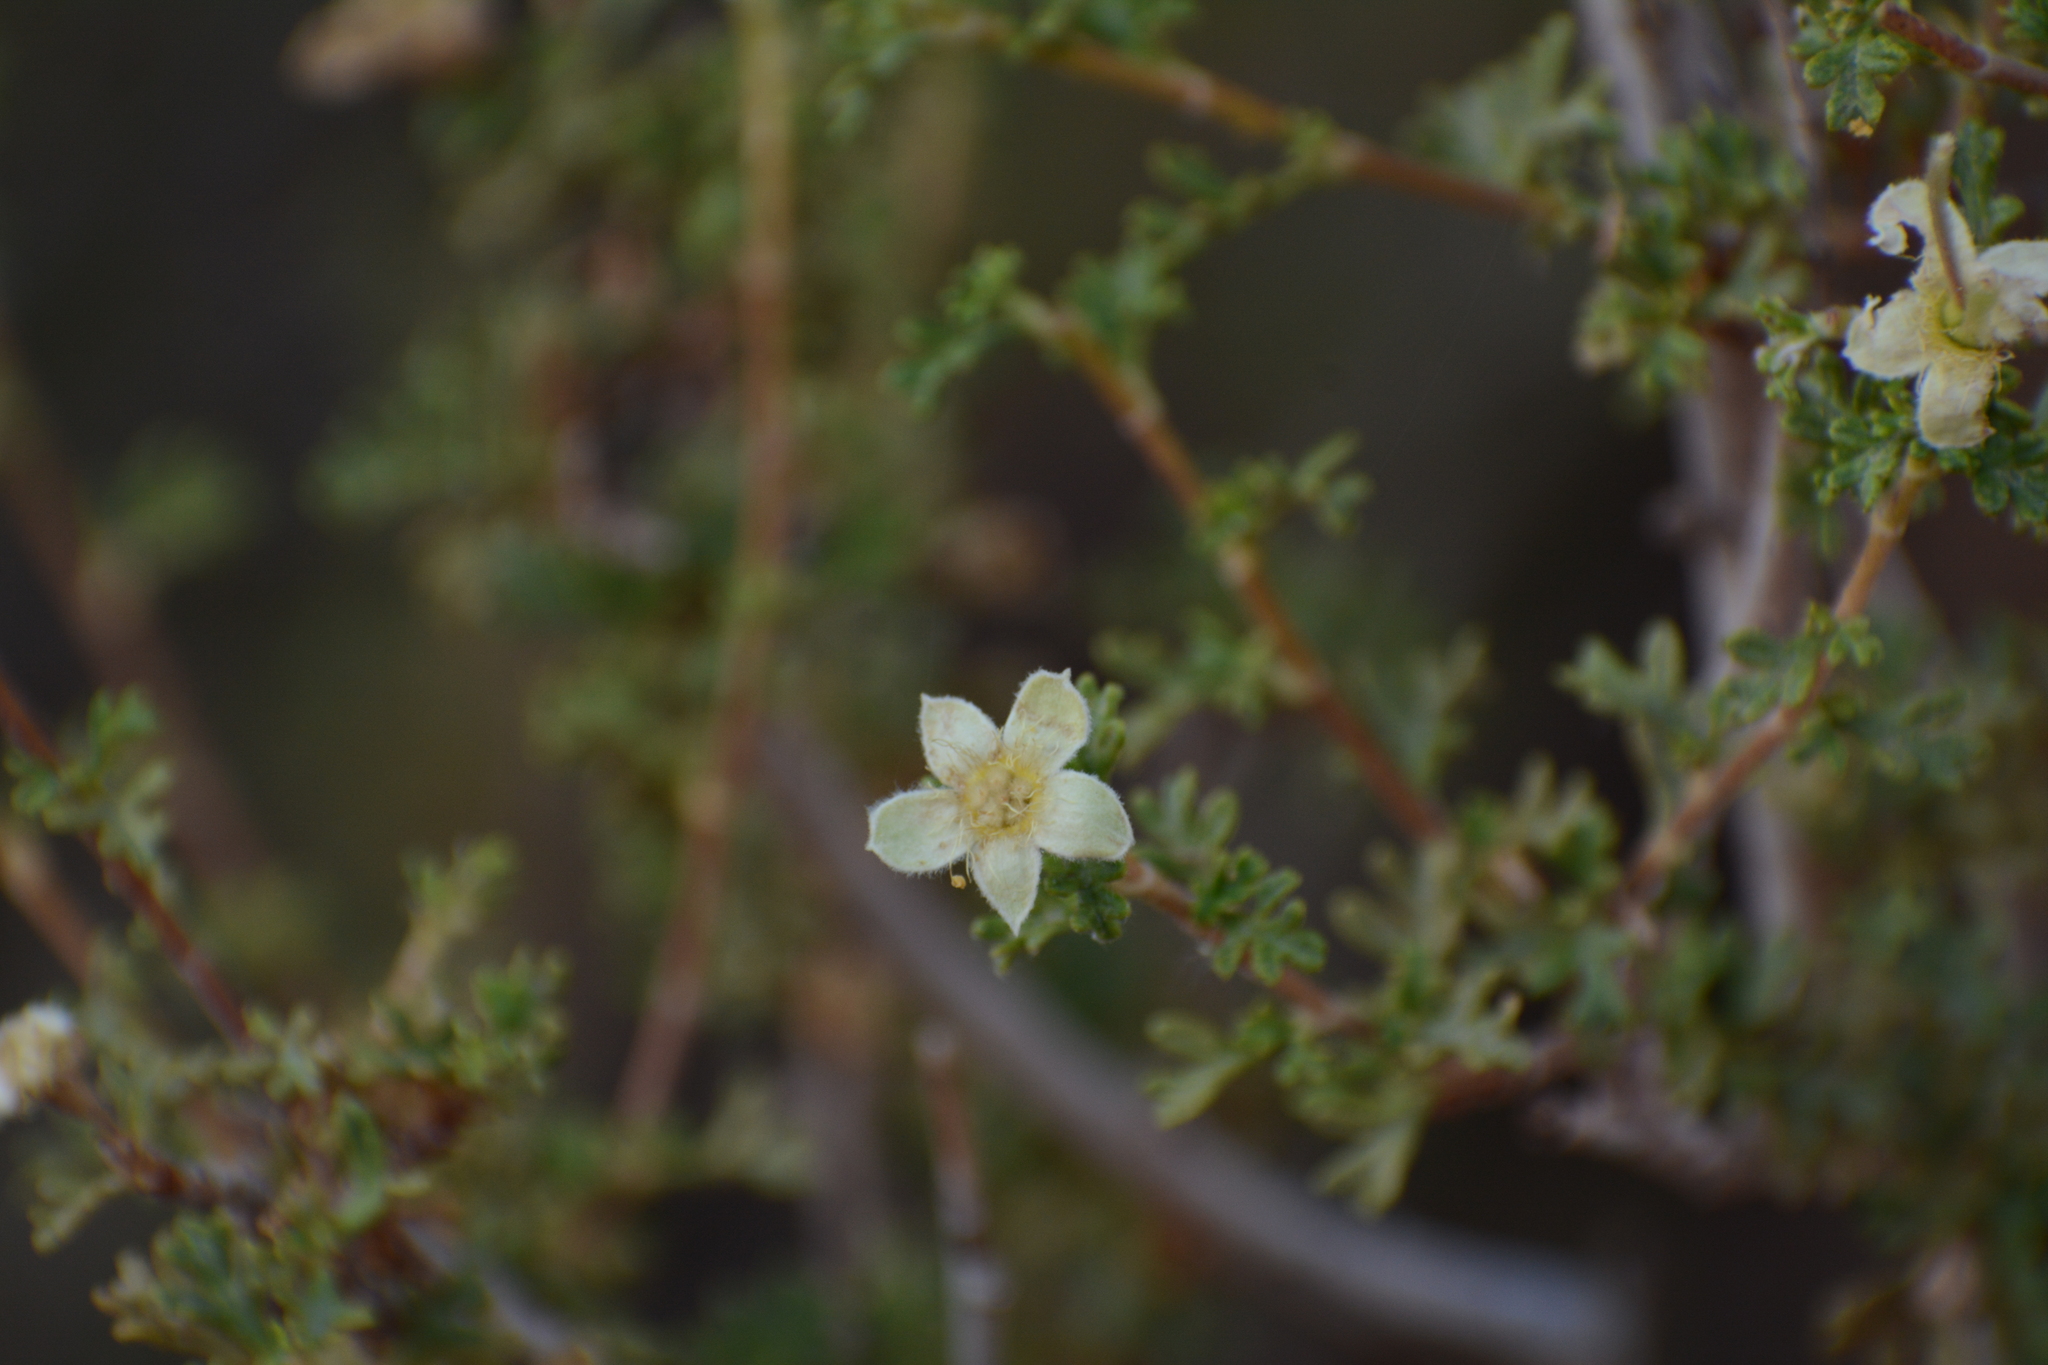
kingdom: Plantae
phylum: Tracheophyta
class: Magnoliopsida
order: Rosales
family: Rosaceae
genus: Purshia
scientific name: Purshia stansburiana
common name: Stansbury's cliffrose
